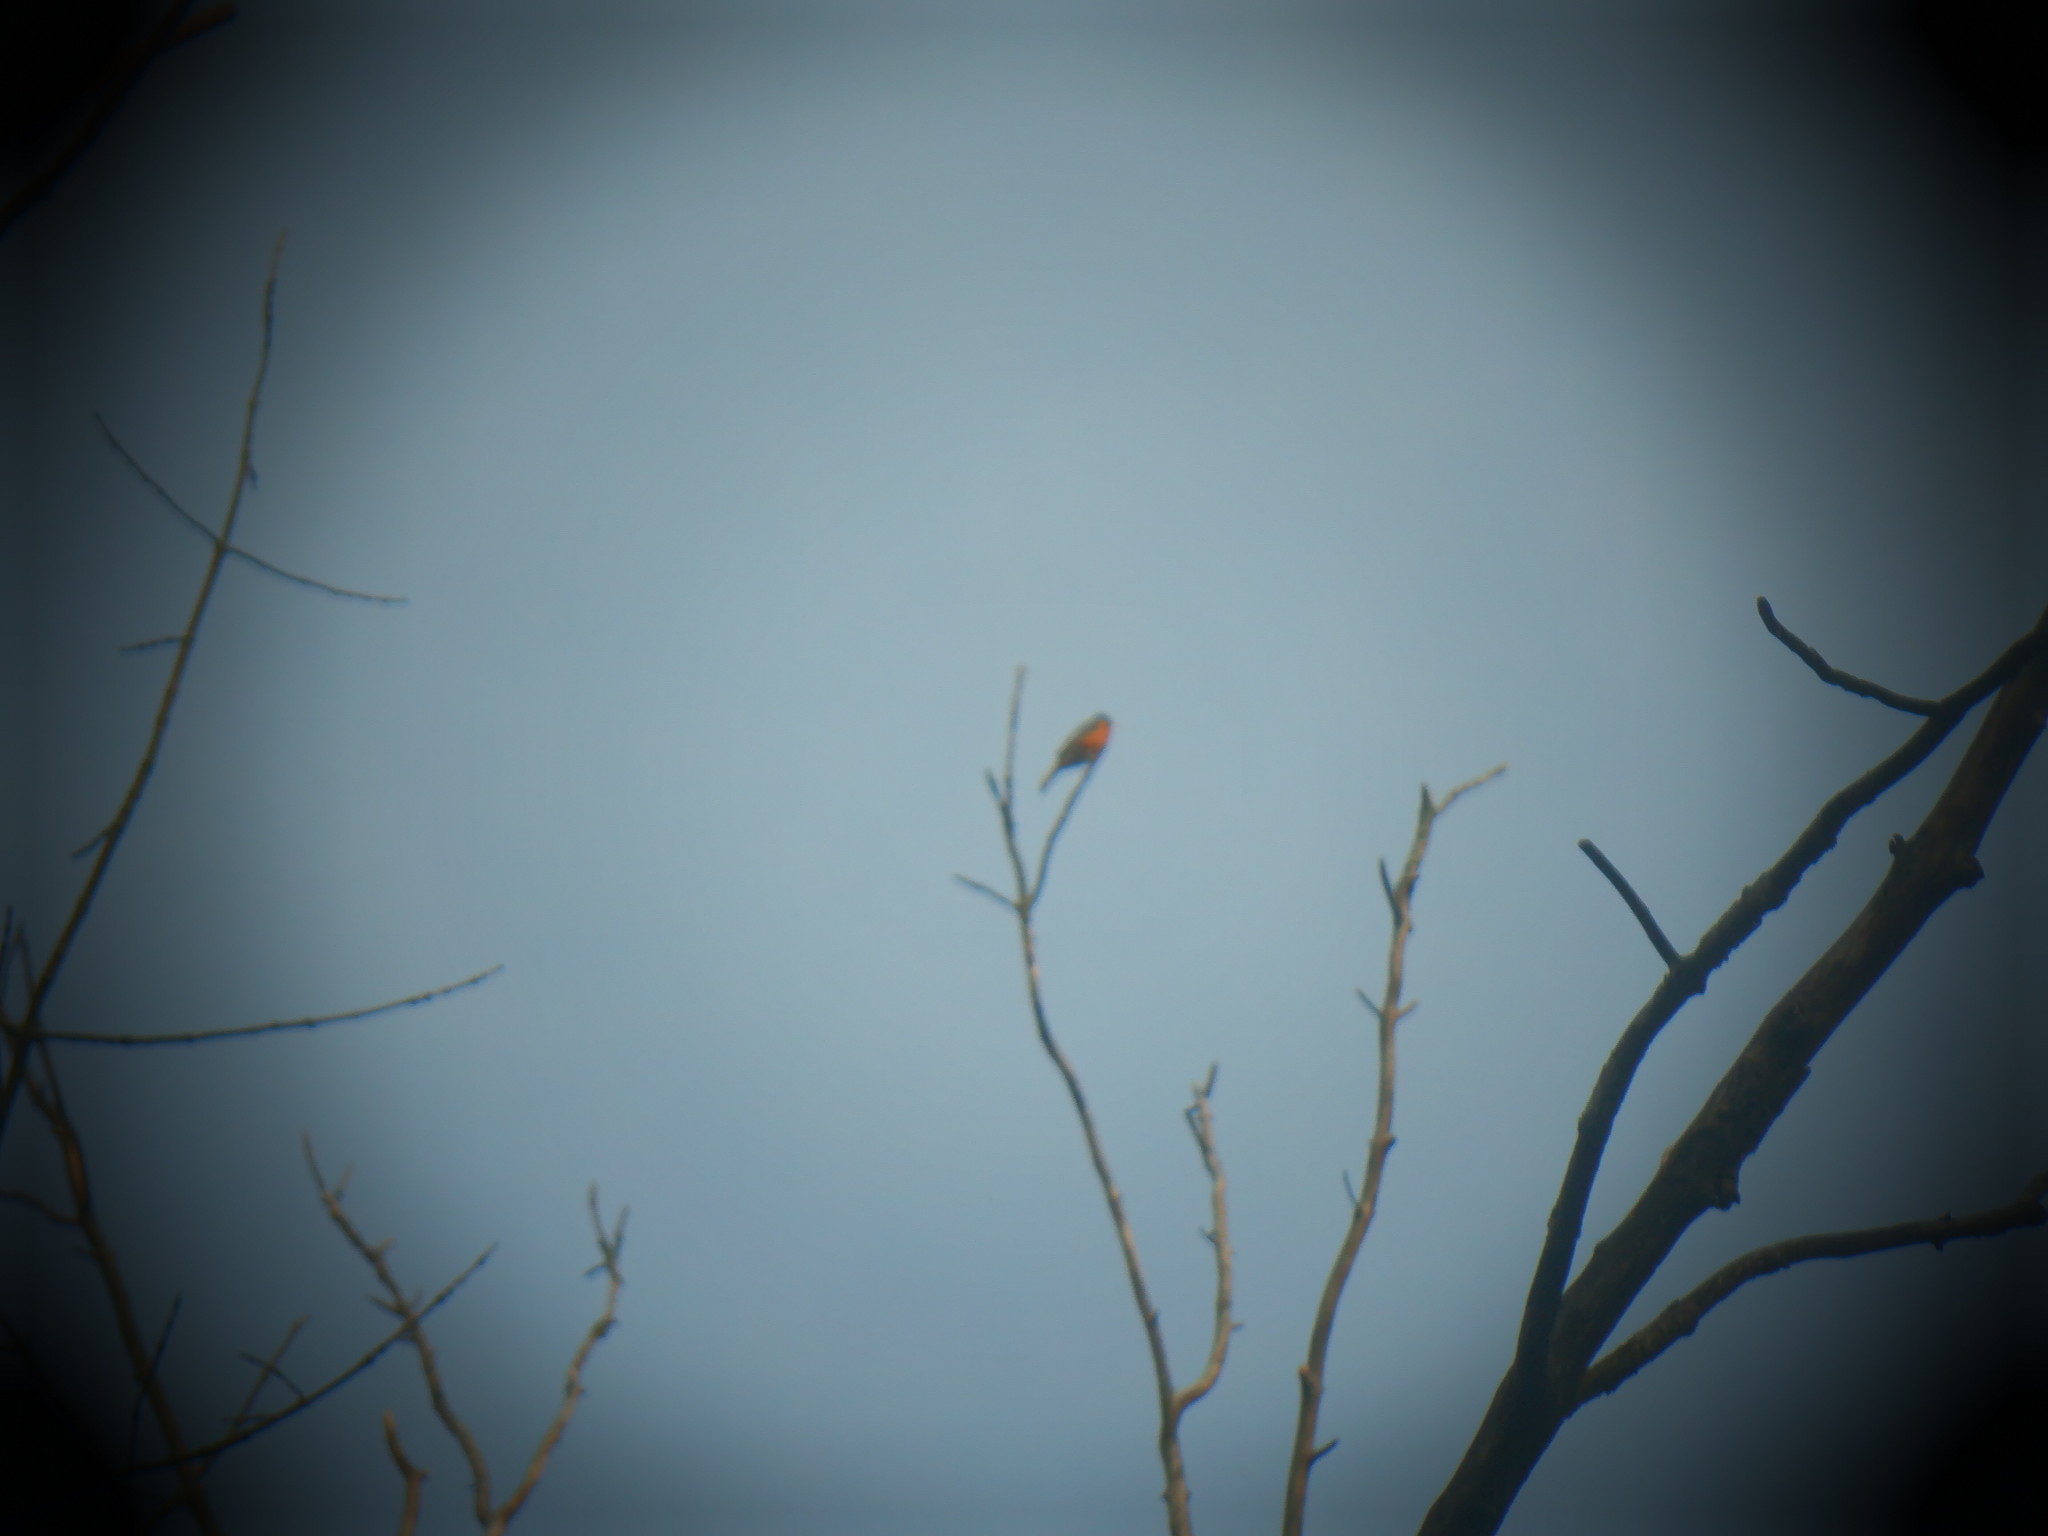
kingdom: Animalia
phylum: Chordata
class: Aves
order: Passeriformes
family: Turdidae
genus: Turdus
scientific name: Turdus migratorius
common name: American robin
